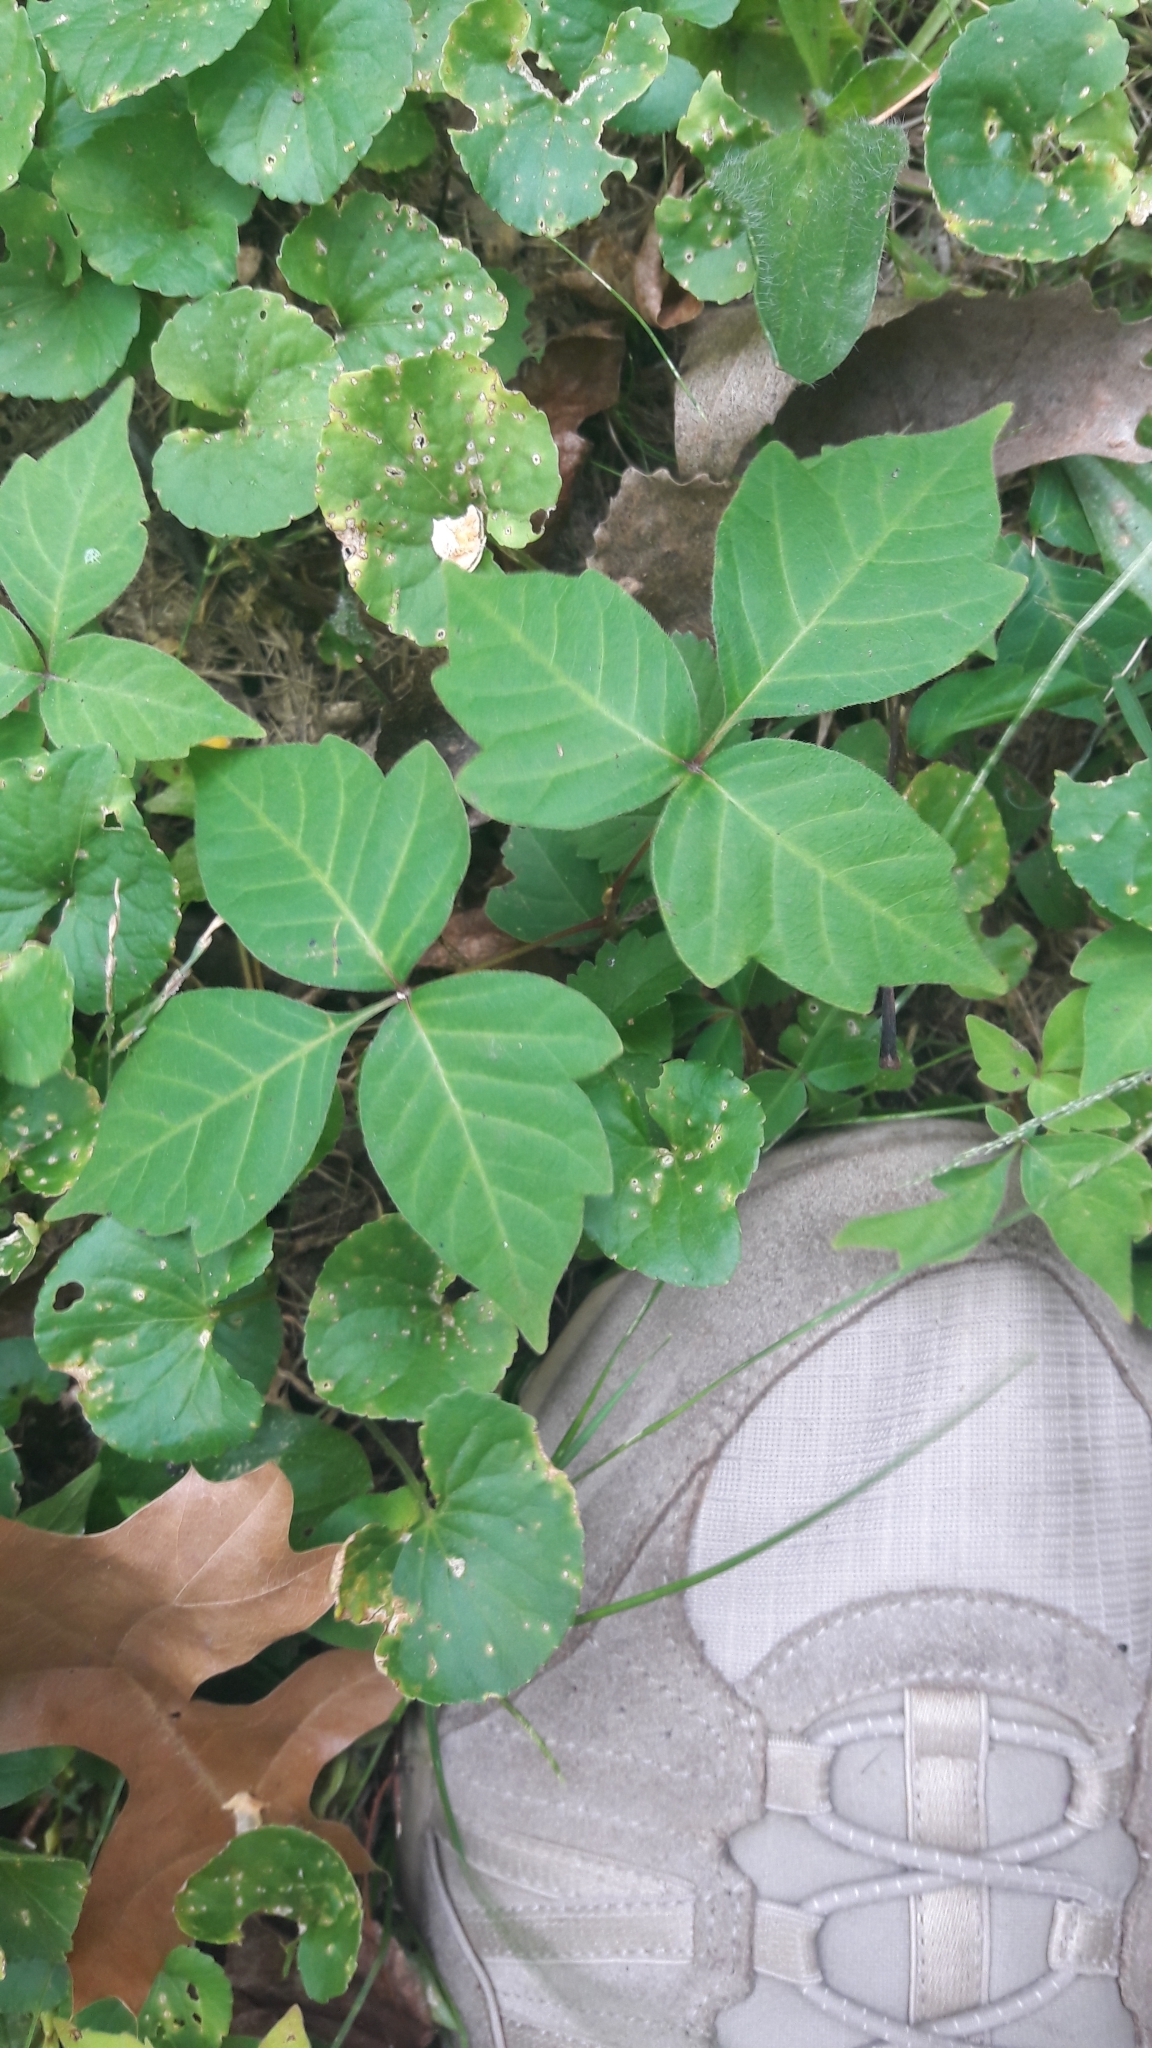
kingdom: Plantae
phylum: Tracheophyta
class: Magnoliopsida
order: Sapindales
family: Anacardiaceae
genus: Toxicodendron
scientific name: Toxicodendron radicans
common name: Poison ivy
